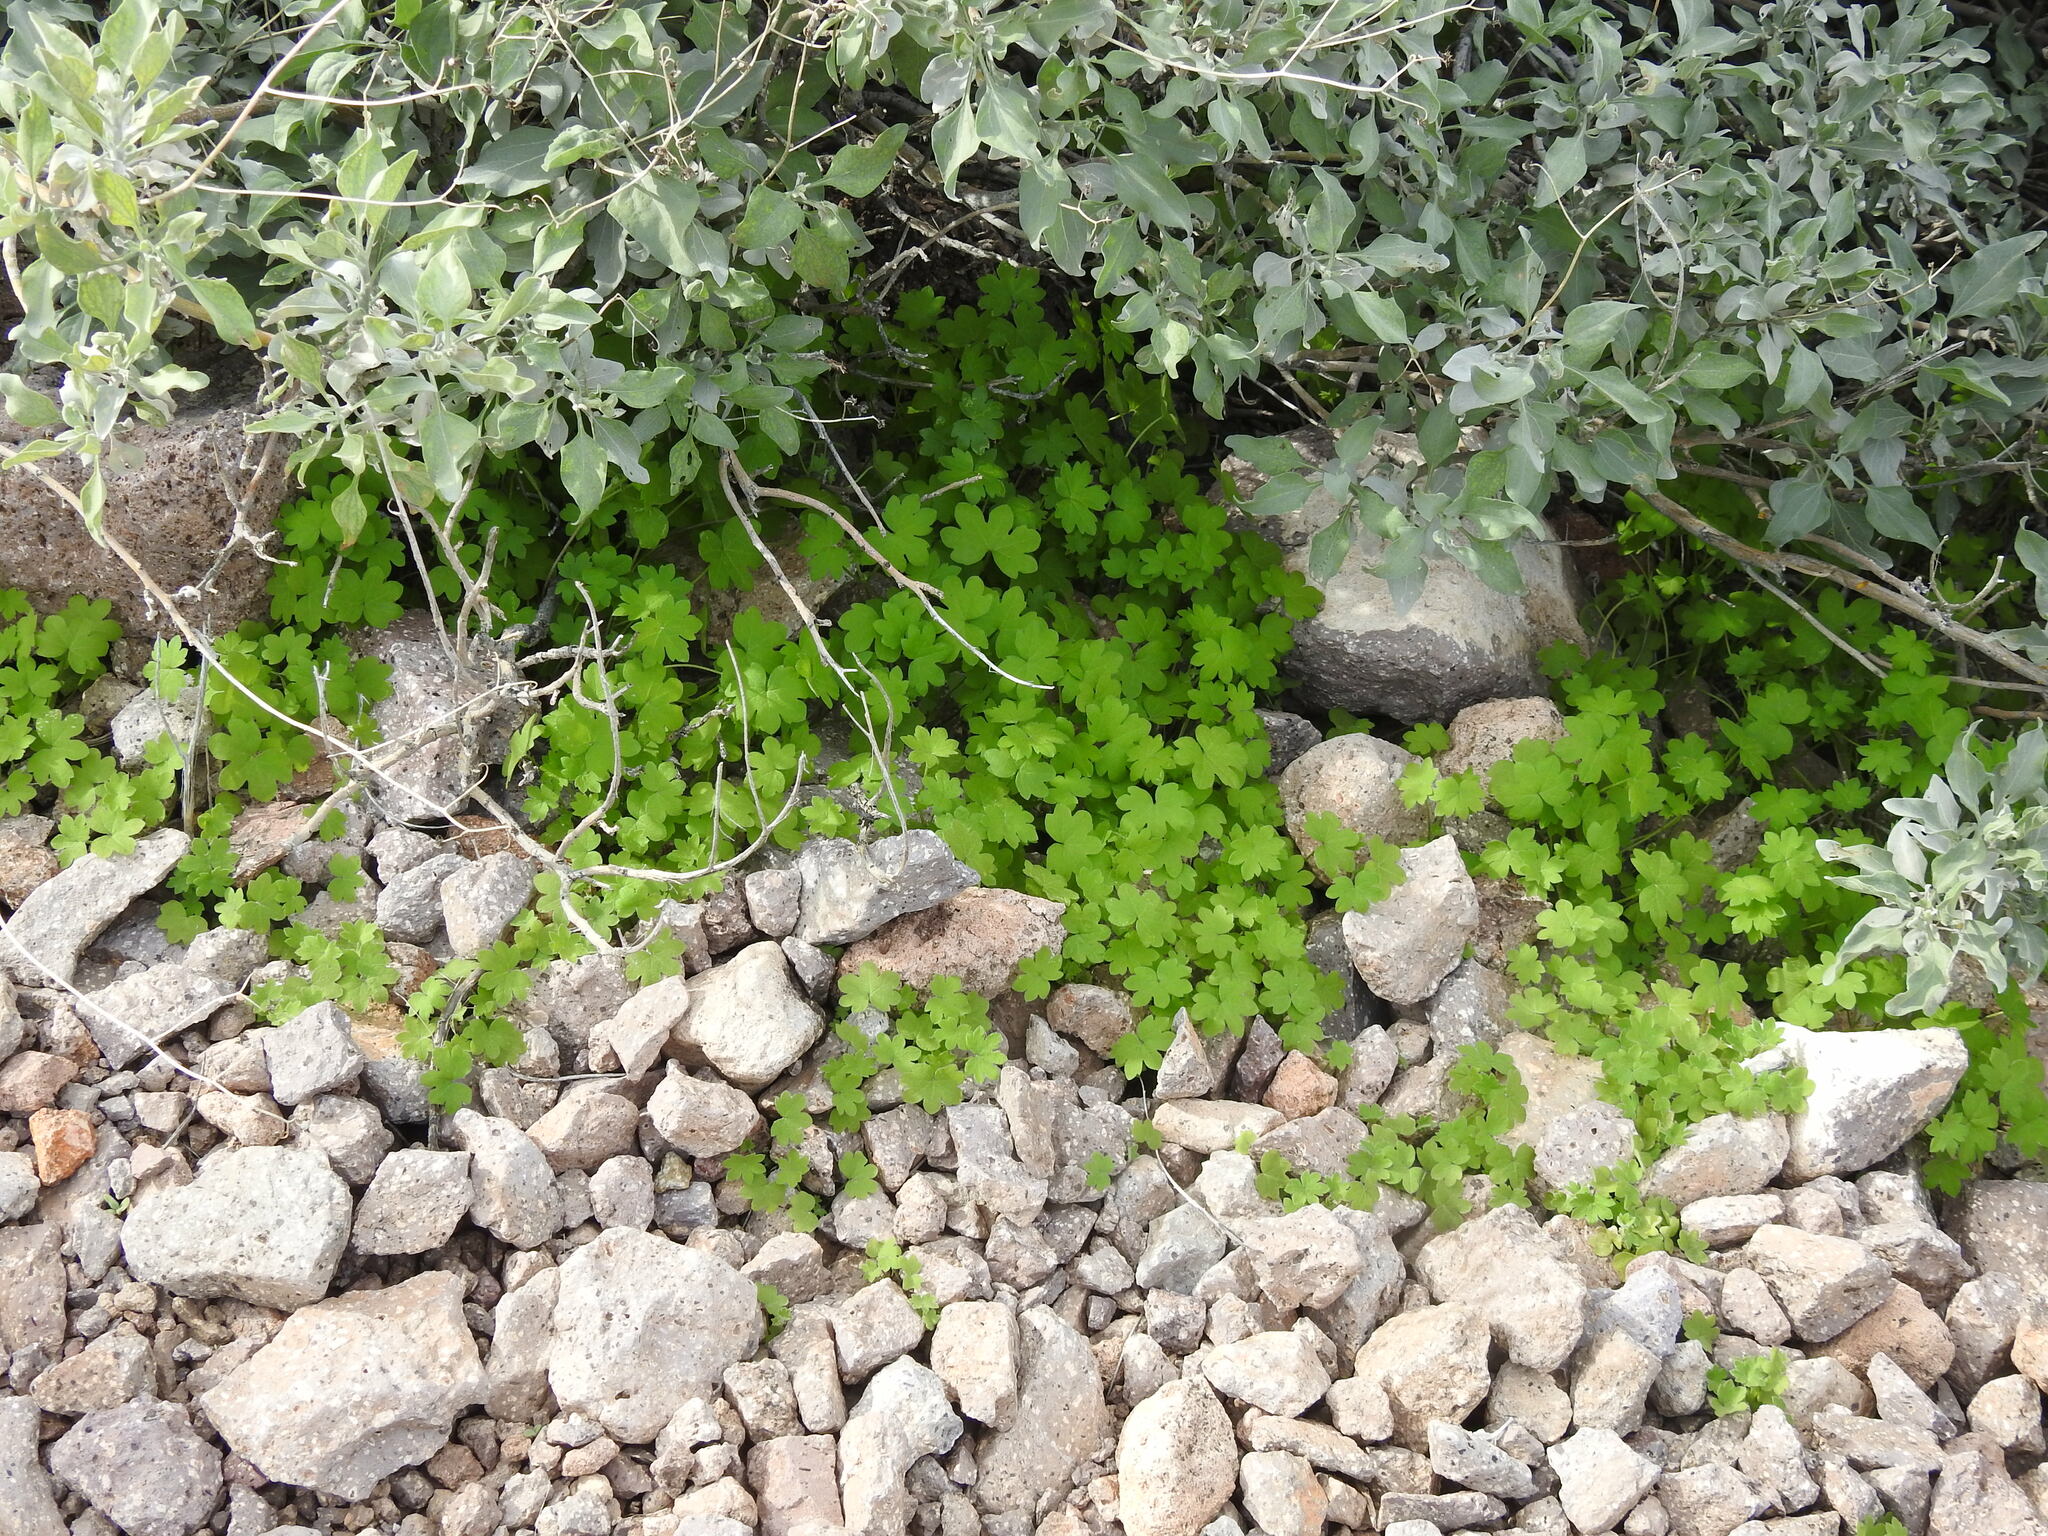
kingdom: Plantae
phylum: Tracheophyta
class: Magnoliopsida
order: Apiales
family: Apiaceae
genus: Bowlesia
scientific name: Bowlesia incana
